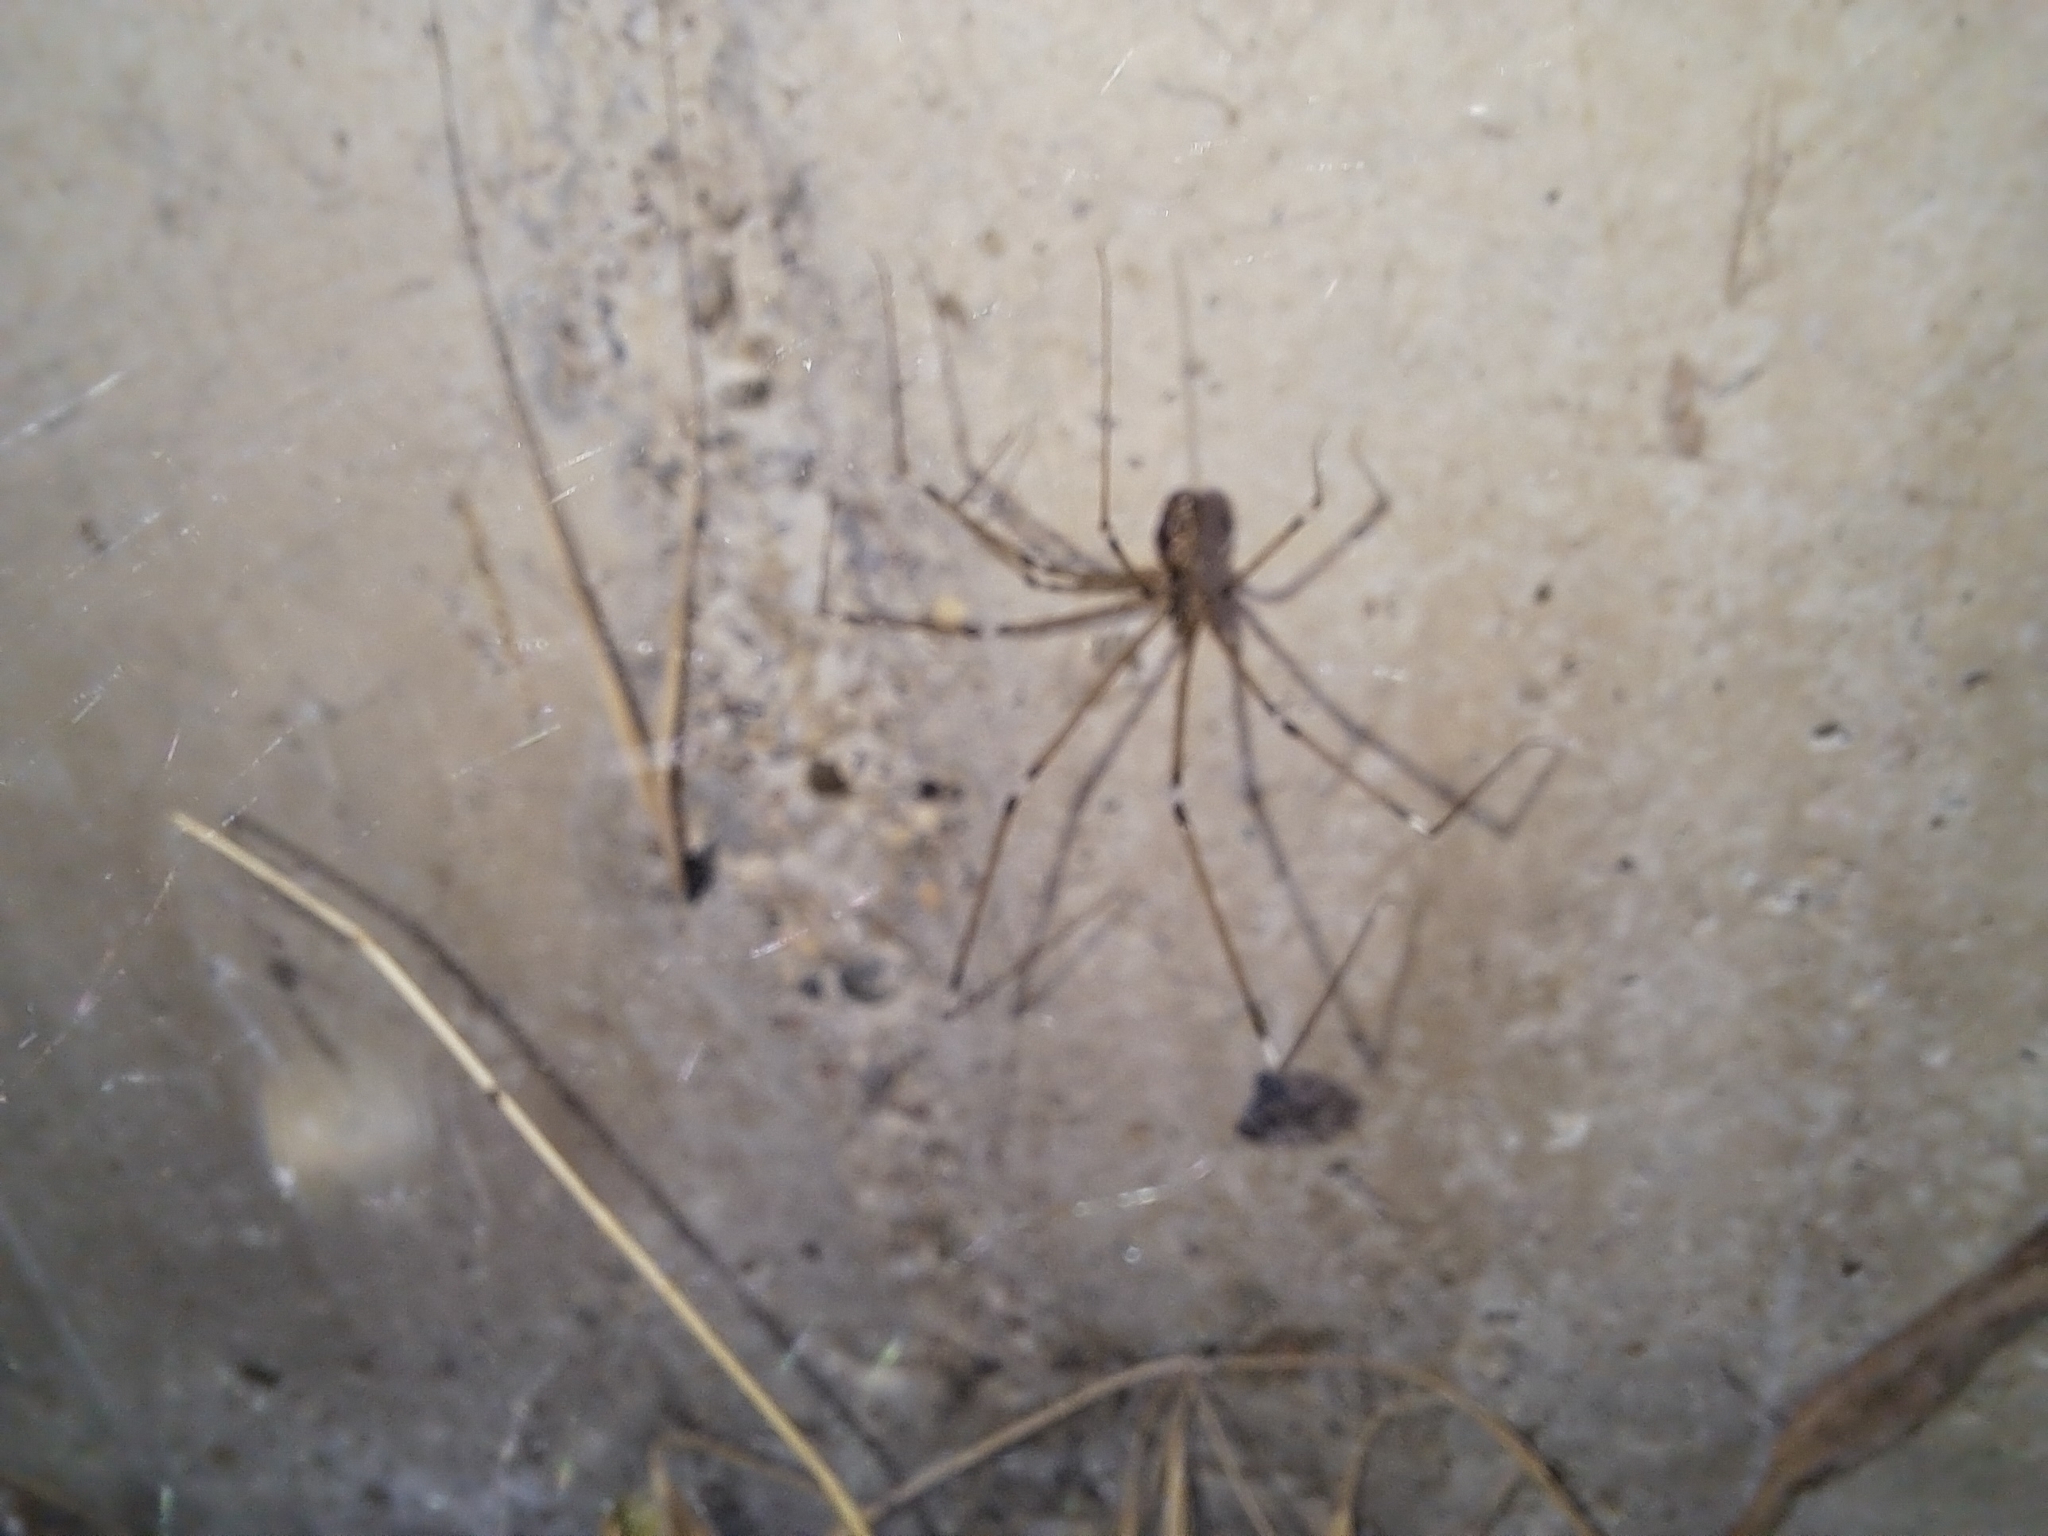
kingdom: Animalia
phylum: Arthropoda
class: Arachnida
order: Araneae
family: Pholcidae
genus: Holocnemus
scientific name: Holocnemus pluchei
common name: Marbled cellar spider
